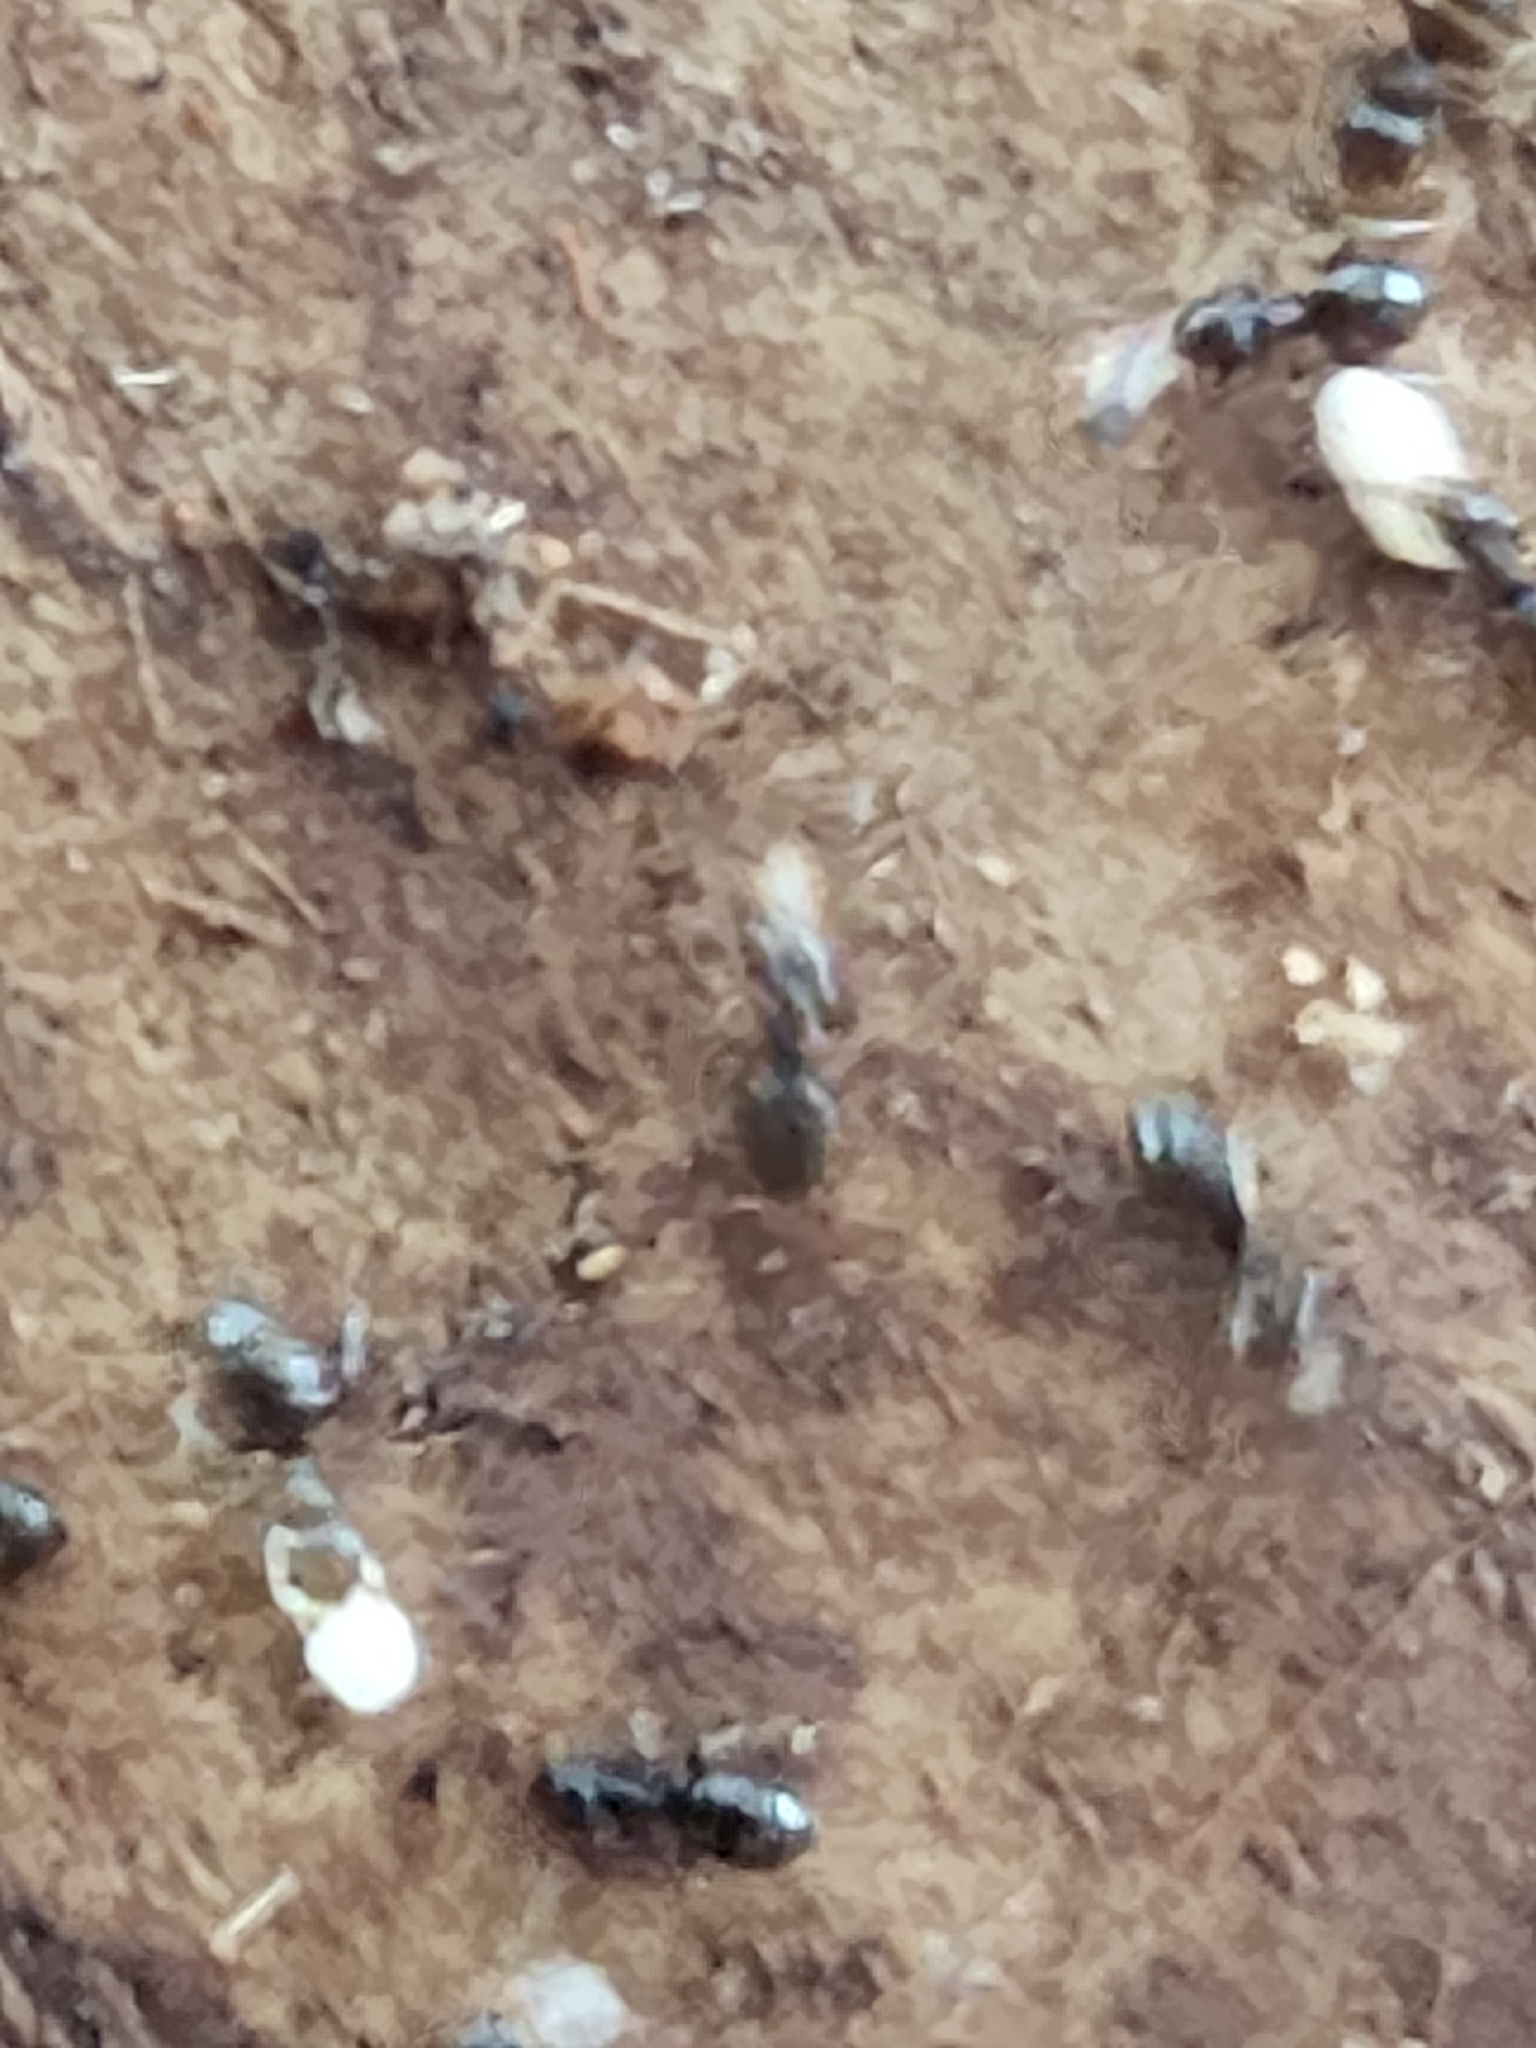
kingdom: Animalia
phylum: Arthropoda
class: Insecta
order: Hymenoptera
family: Formicidae
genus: Brachymyrmex
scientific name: Brachymyrmex patagonicus
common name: Dark rover ant
